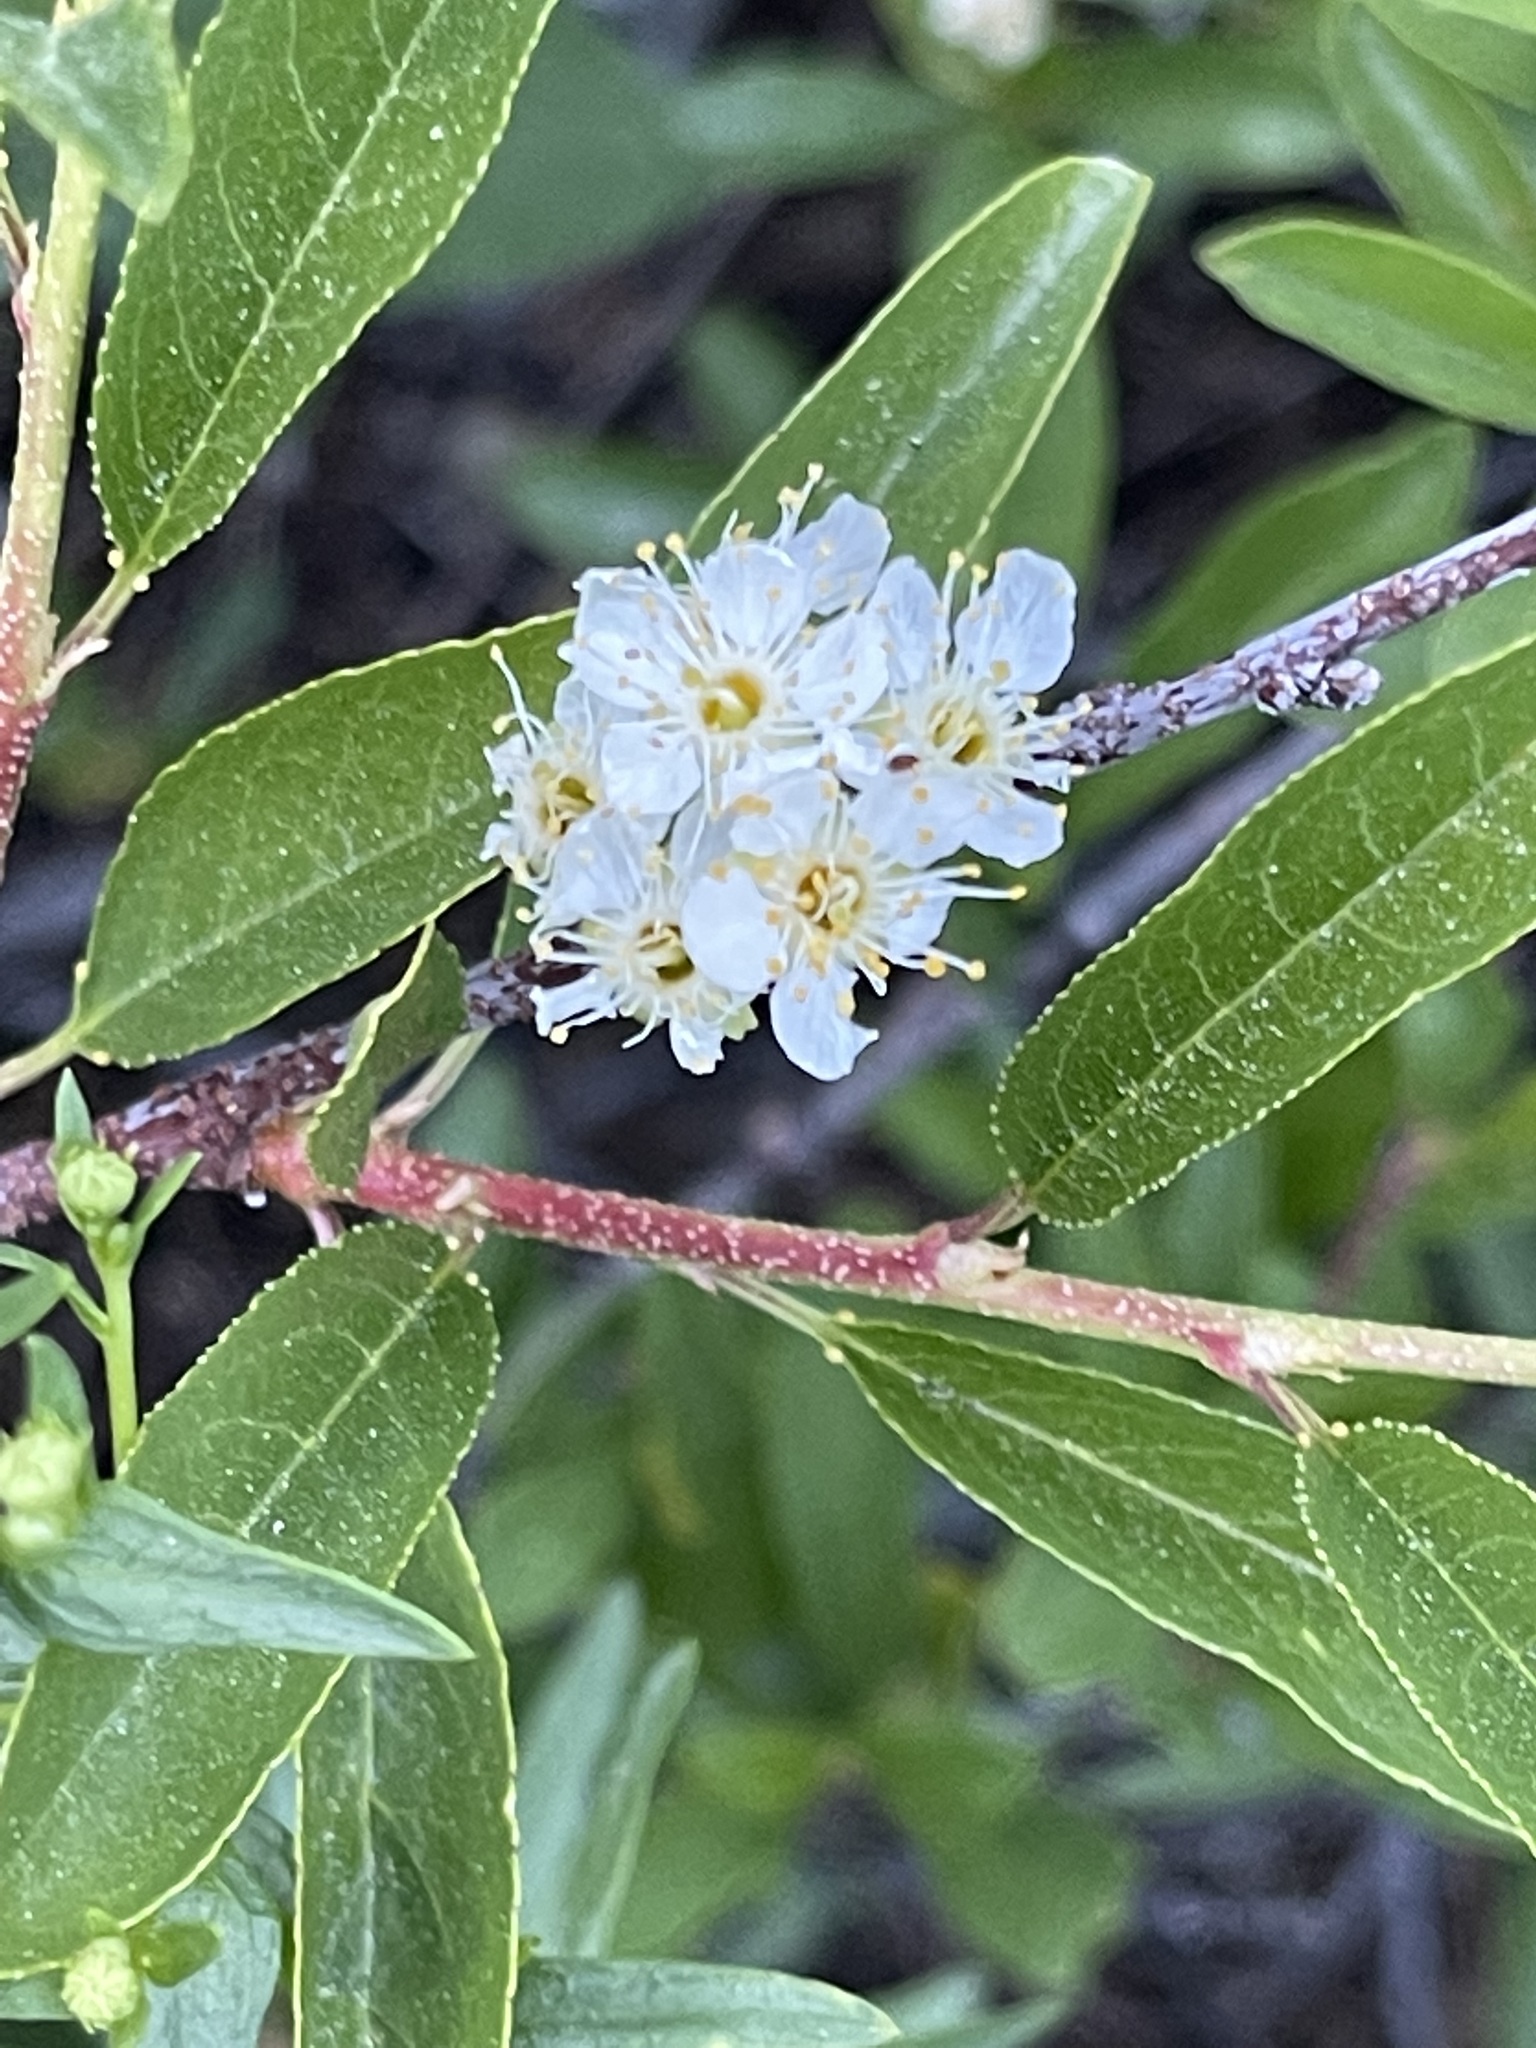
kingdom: Plantae
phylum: Tracheophyta
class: Magnoliopsida
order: Rosales
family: Rosaceae
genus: Prunus
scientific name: Prunus emarginata
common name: Bitter cherry
